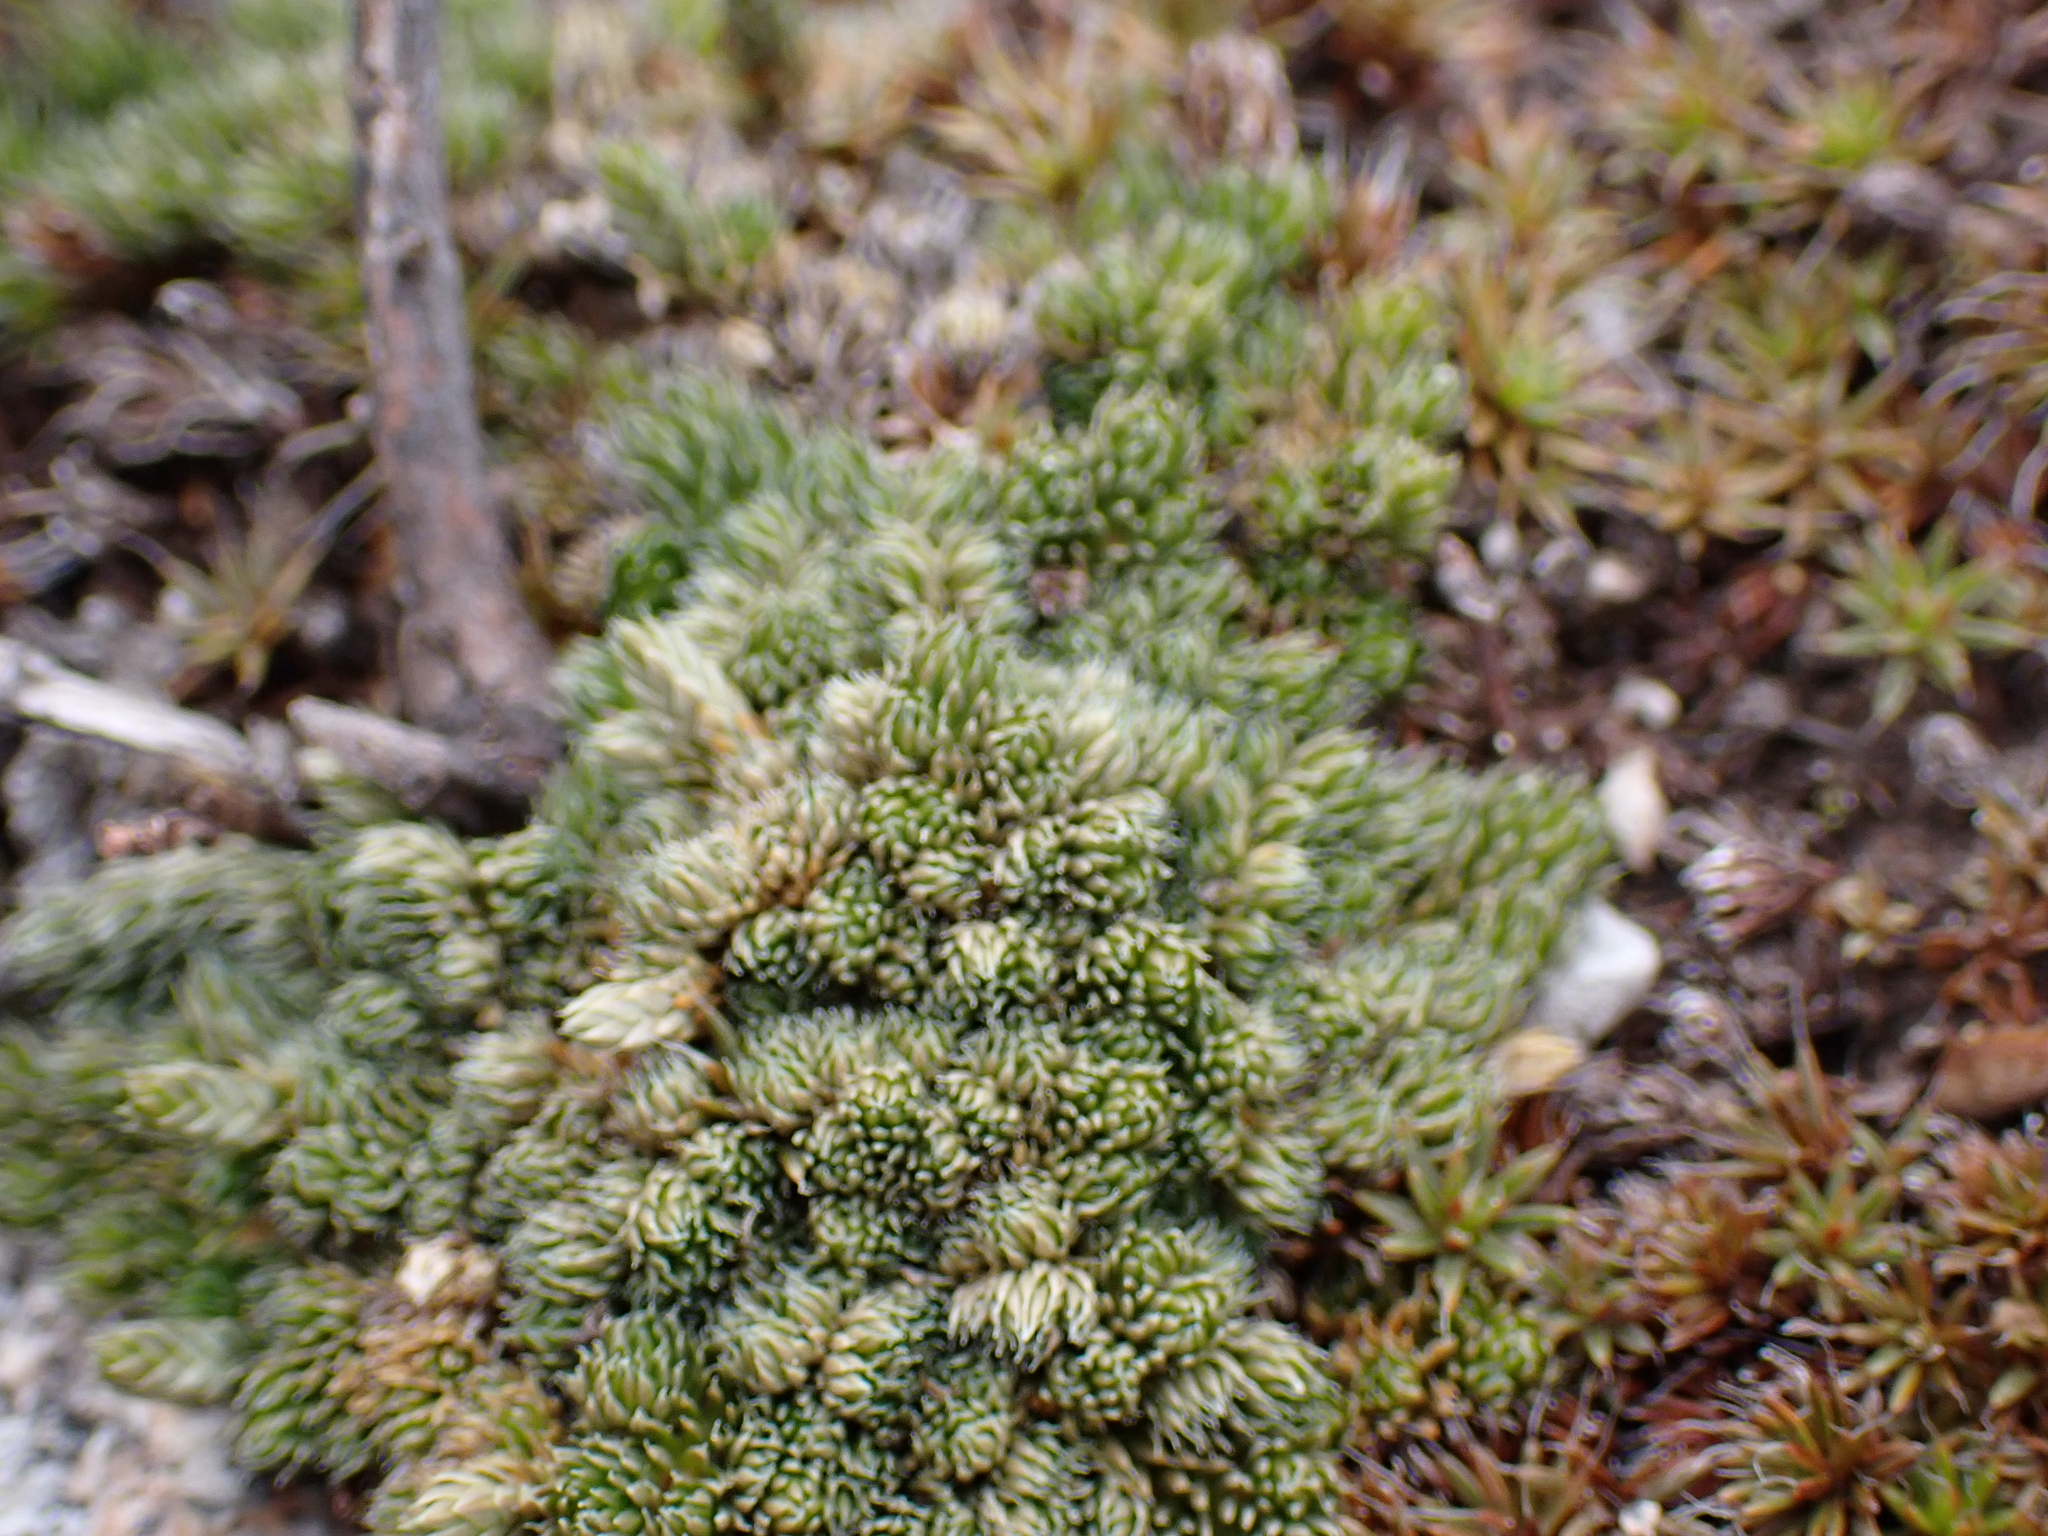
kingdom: Plantae
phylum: Tracheophyta
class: Lycopodiopsida
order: Selaginellales
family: Selaginellaceae
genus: Selaginella
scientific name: Selaginella densa
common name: Mountain spike-moss
